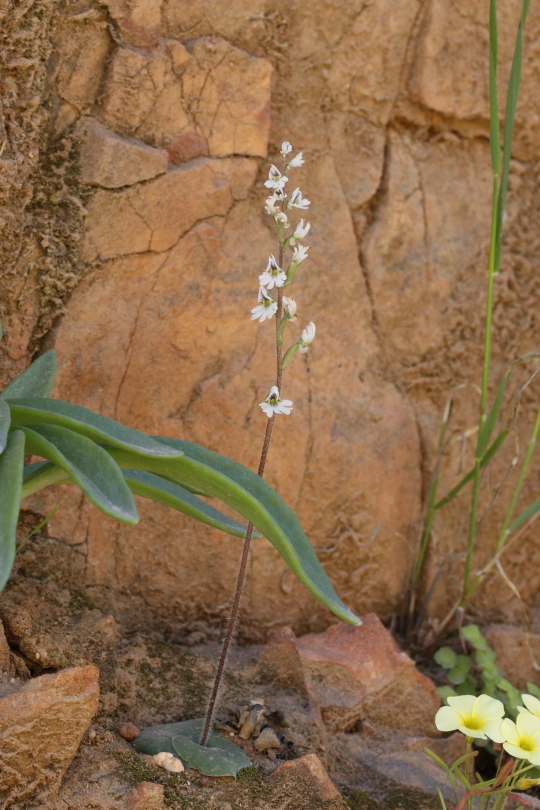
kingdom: Plantae
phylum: Tracheophyta
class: Liliopsida
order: Asparagales
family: Orchidaceae
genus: Holothrix
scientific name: Holothrix aspera
